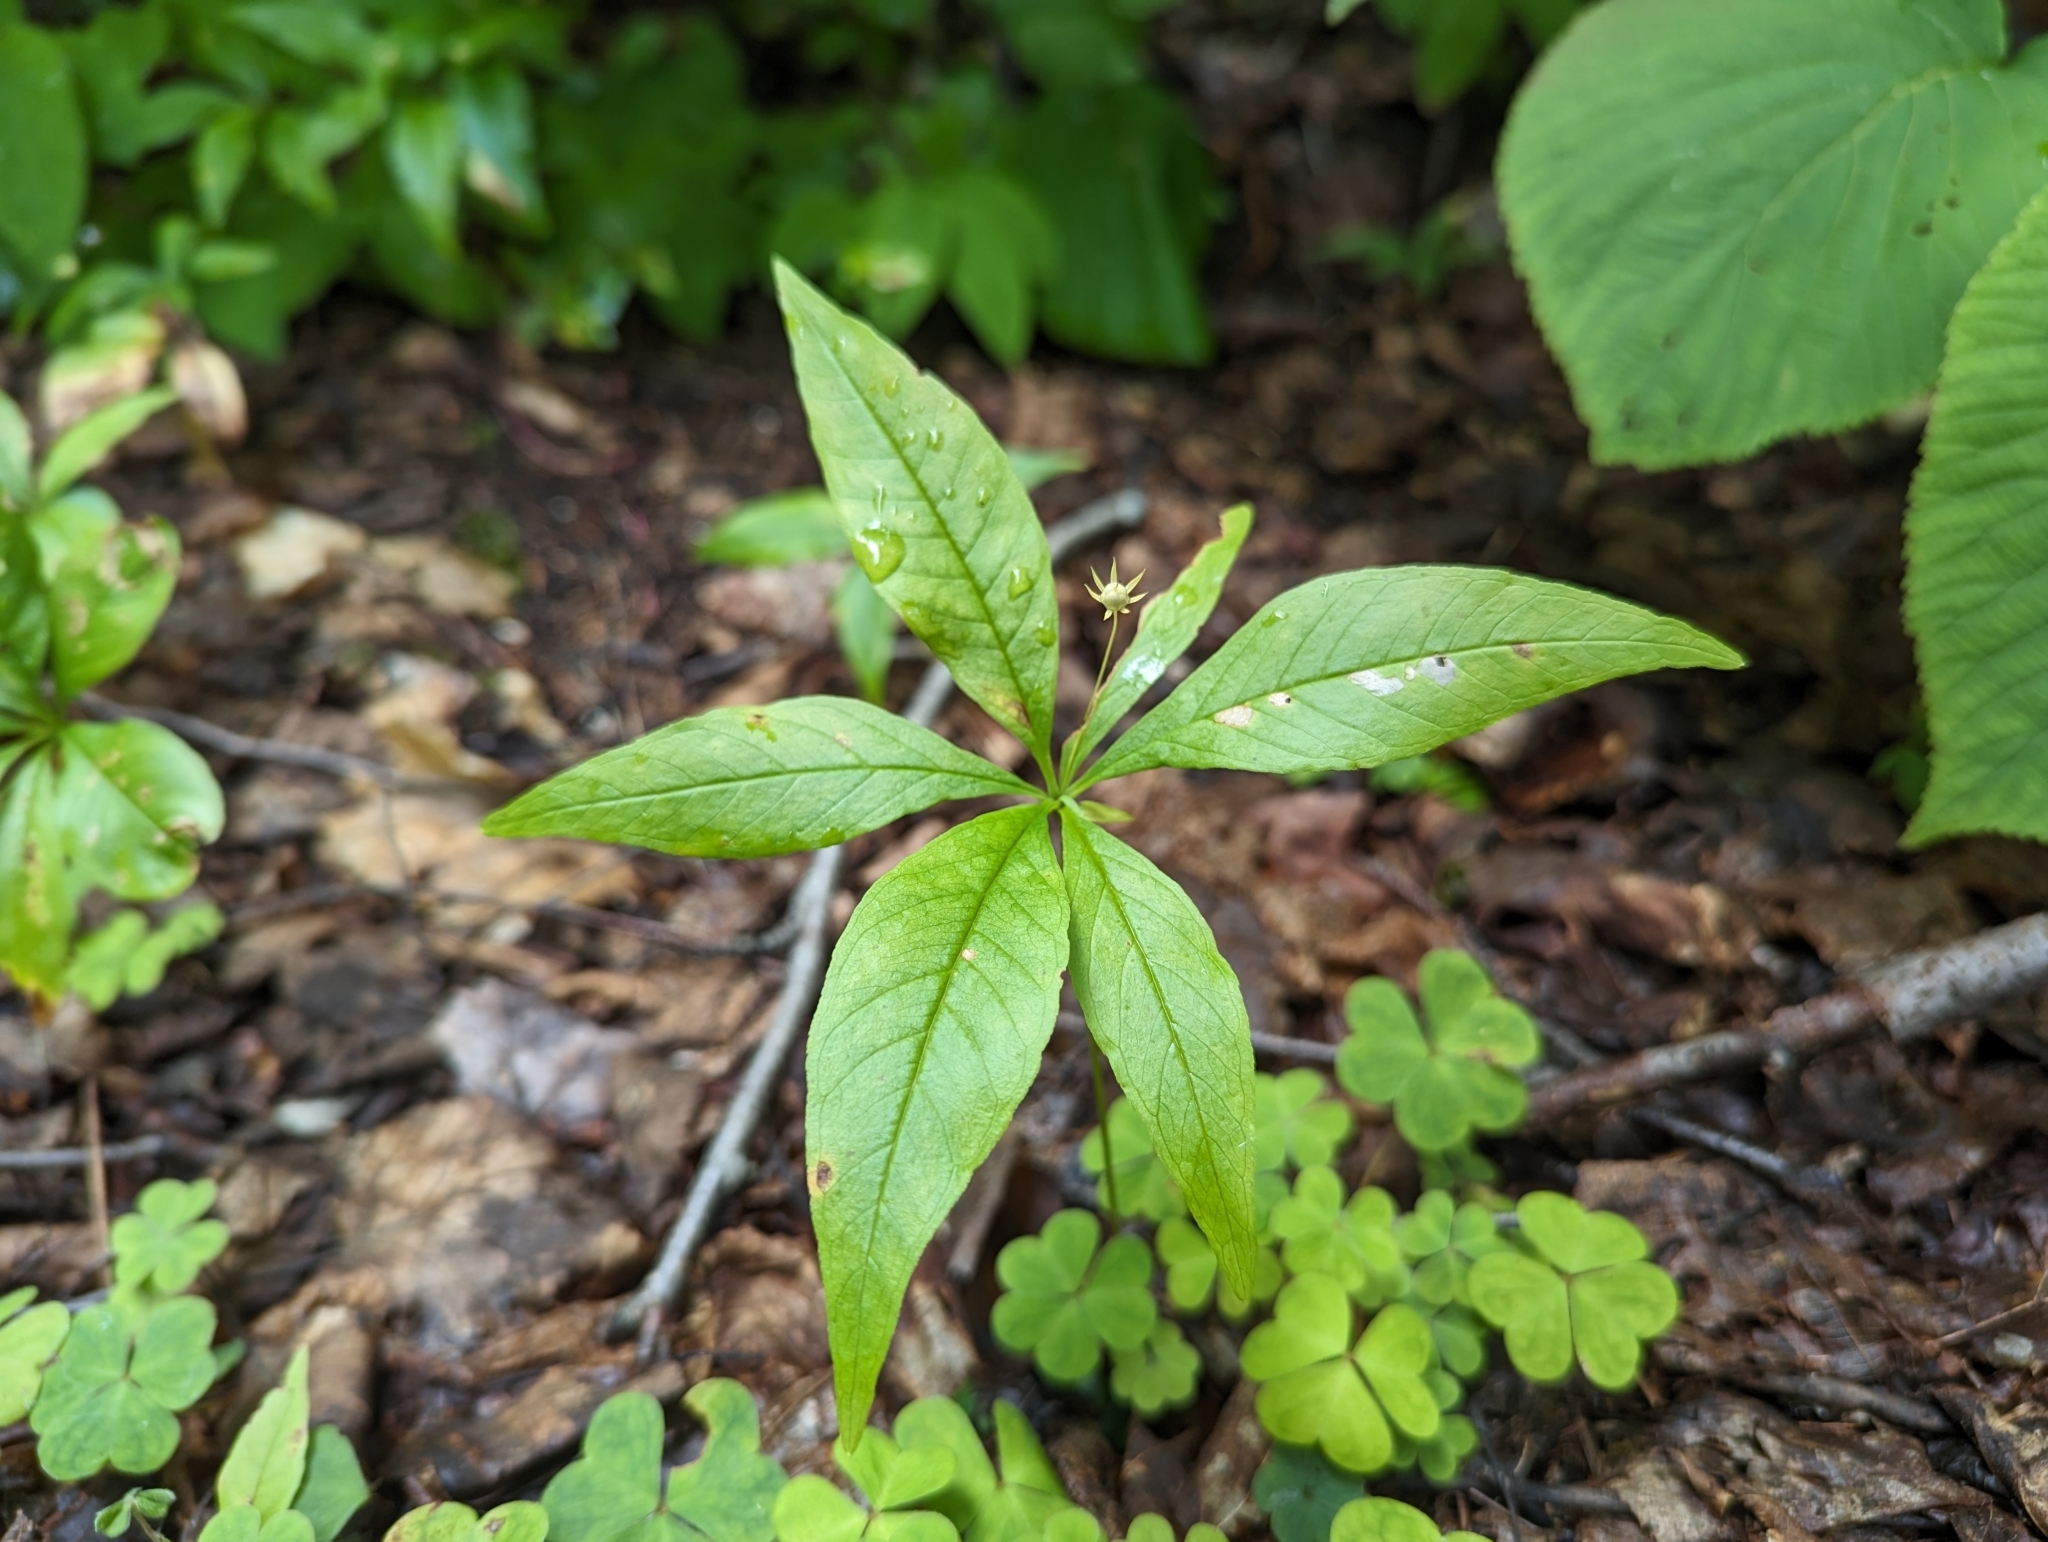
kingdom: Plantae
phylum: Tracheophyta
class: Magnoliopsida
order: Ericales
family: Primulaceae
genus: Lysimachia
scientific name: Lysimachia borealis
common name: American starflower
